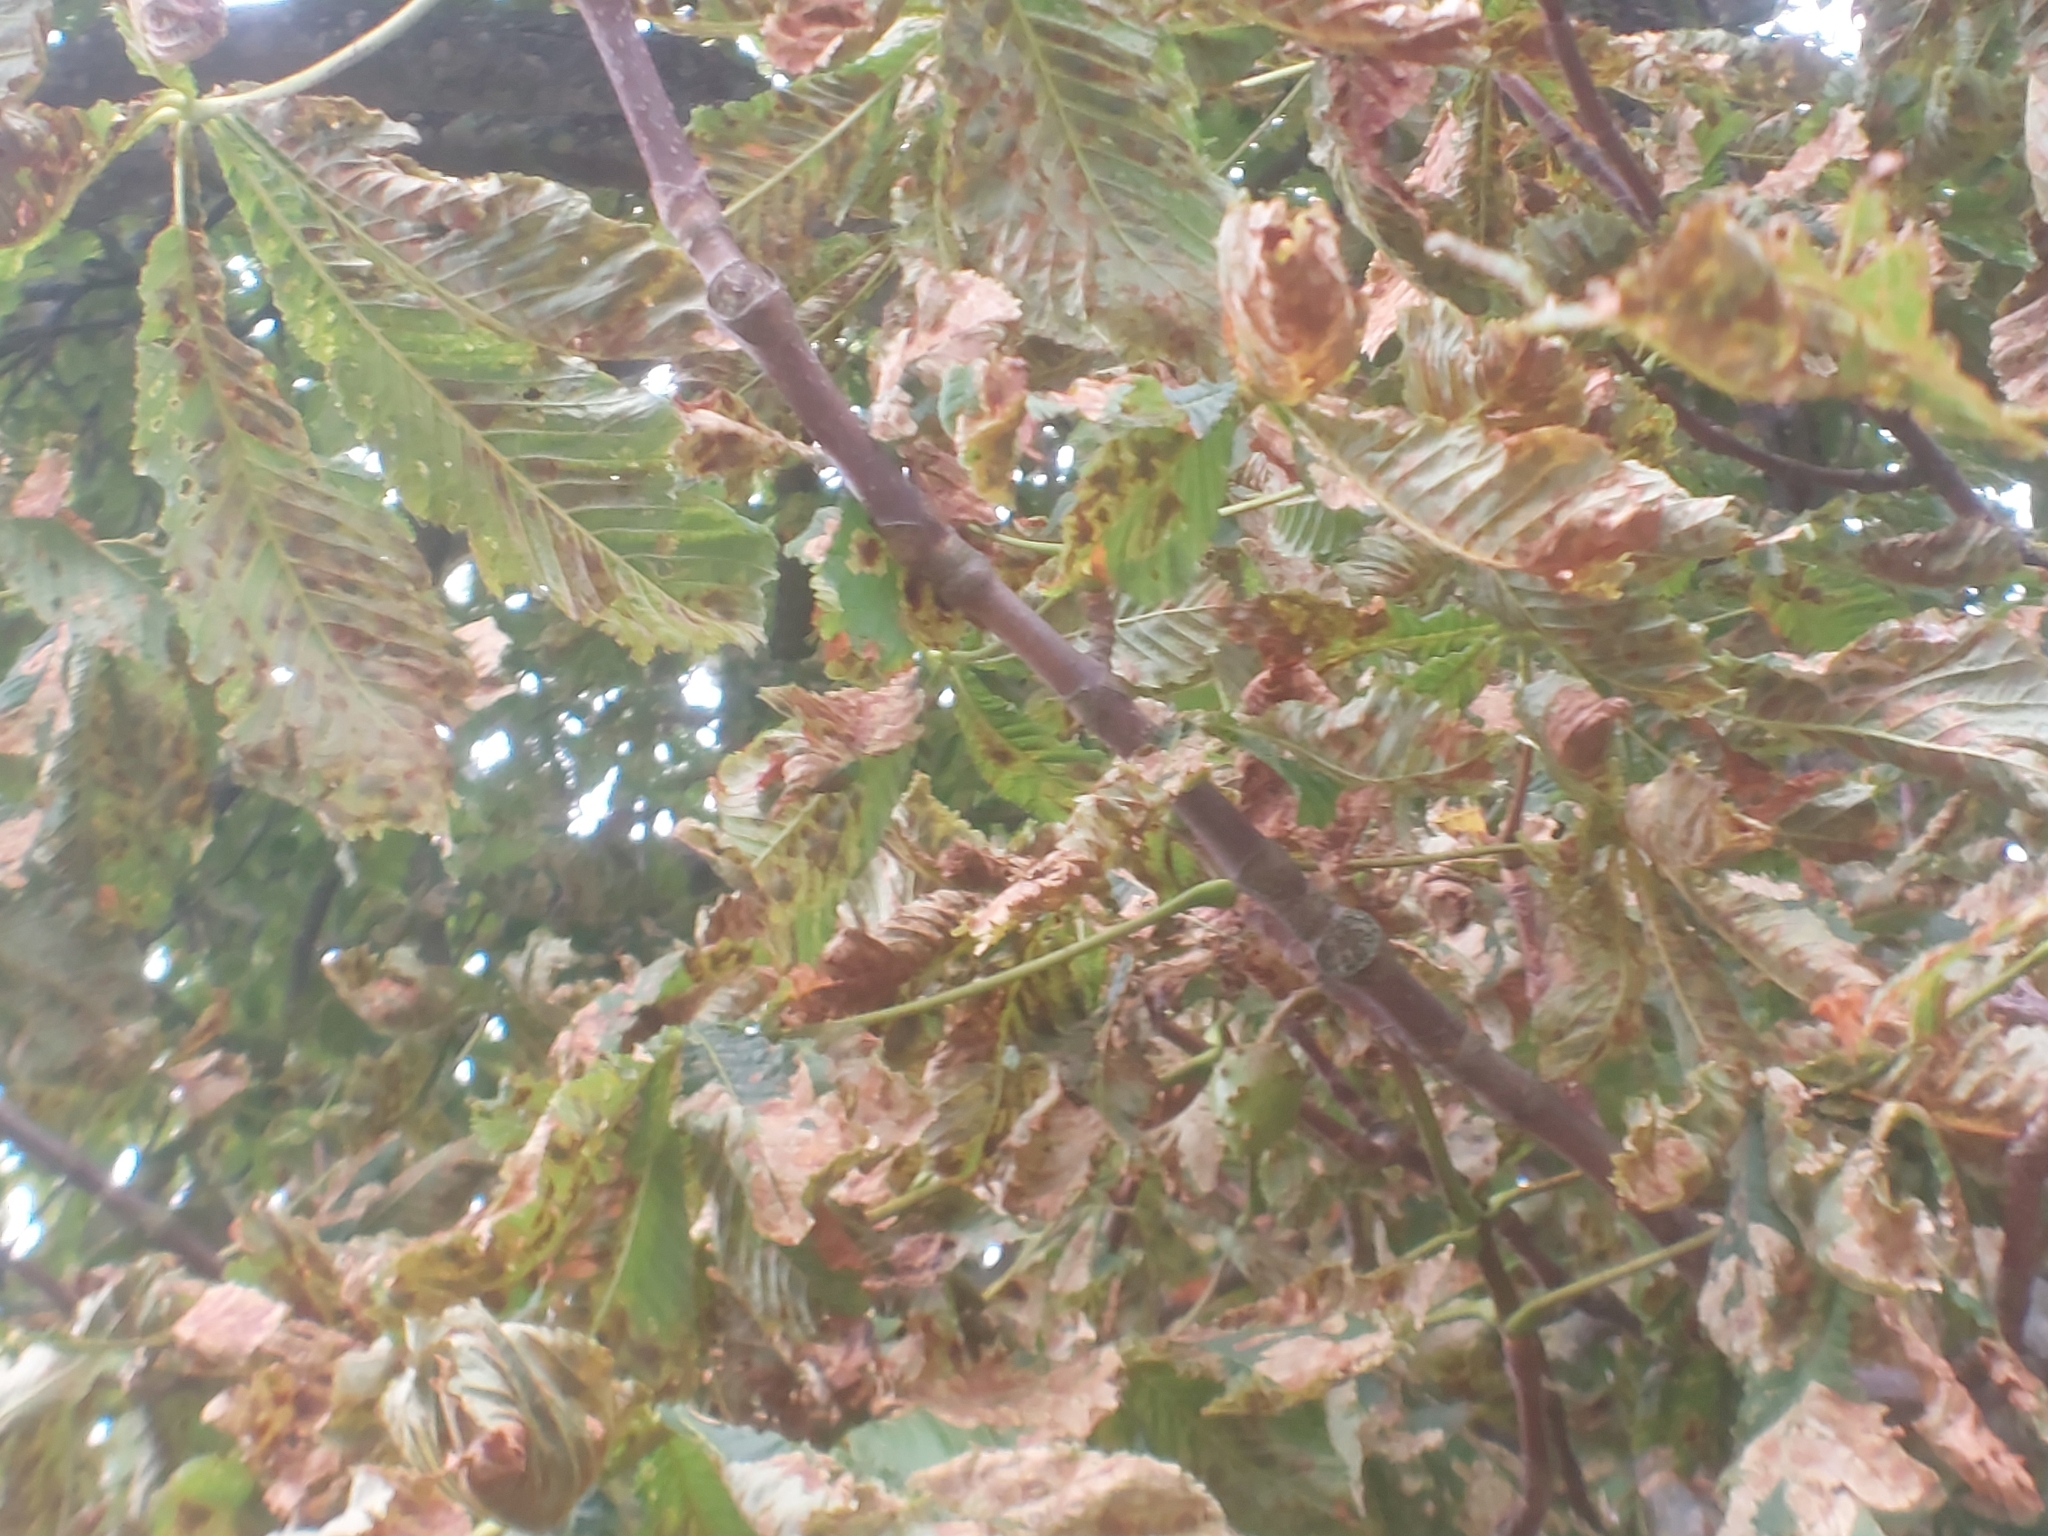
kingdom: Plantae
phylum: Tracheophyta
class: Magnoliopsida
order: Sapindales
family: Sapindaceae
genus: Aesculus
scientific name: Aesculus hippocastanum
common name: Horse-chestnut
